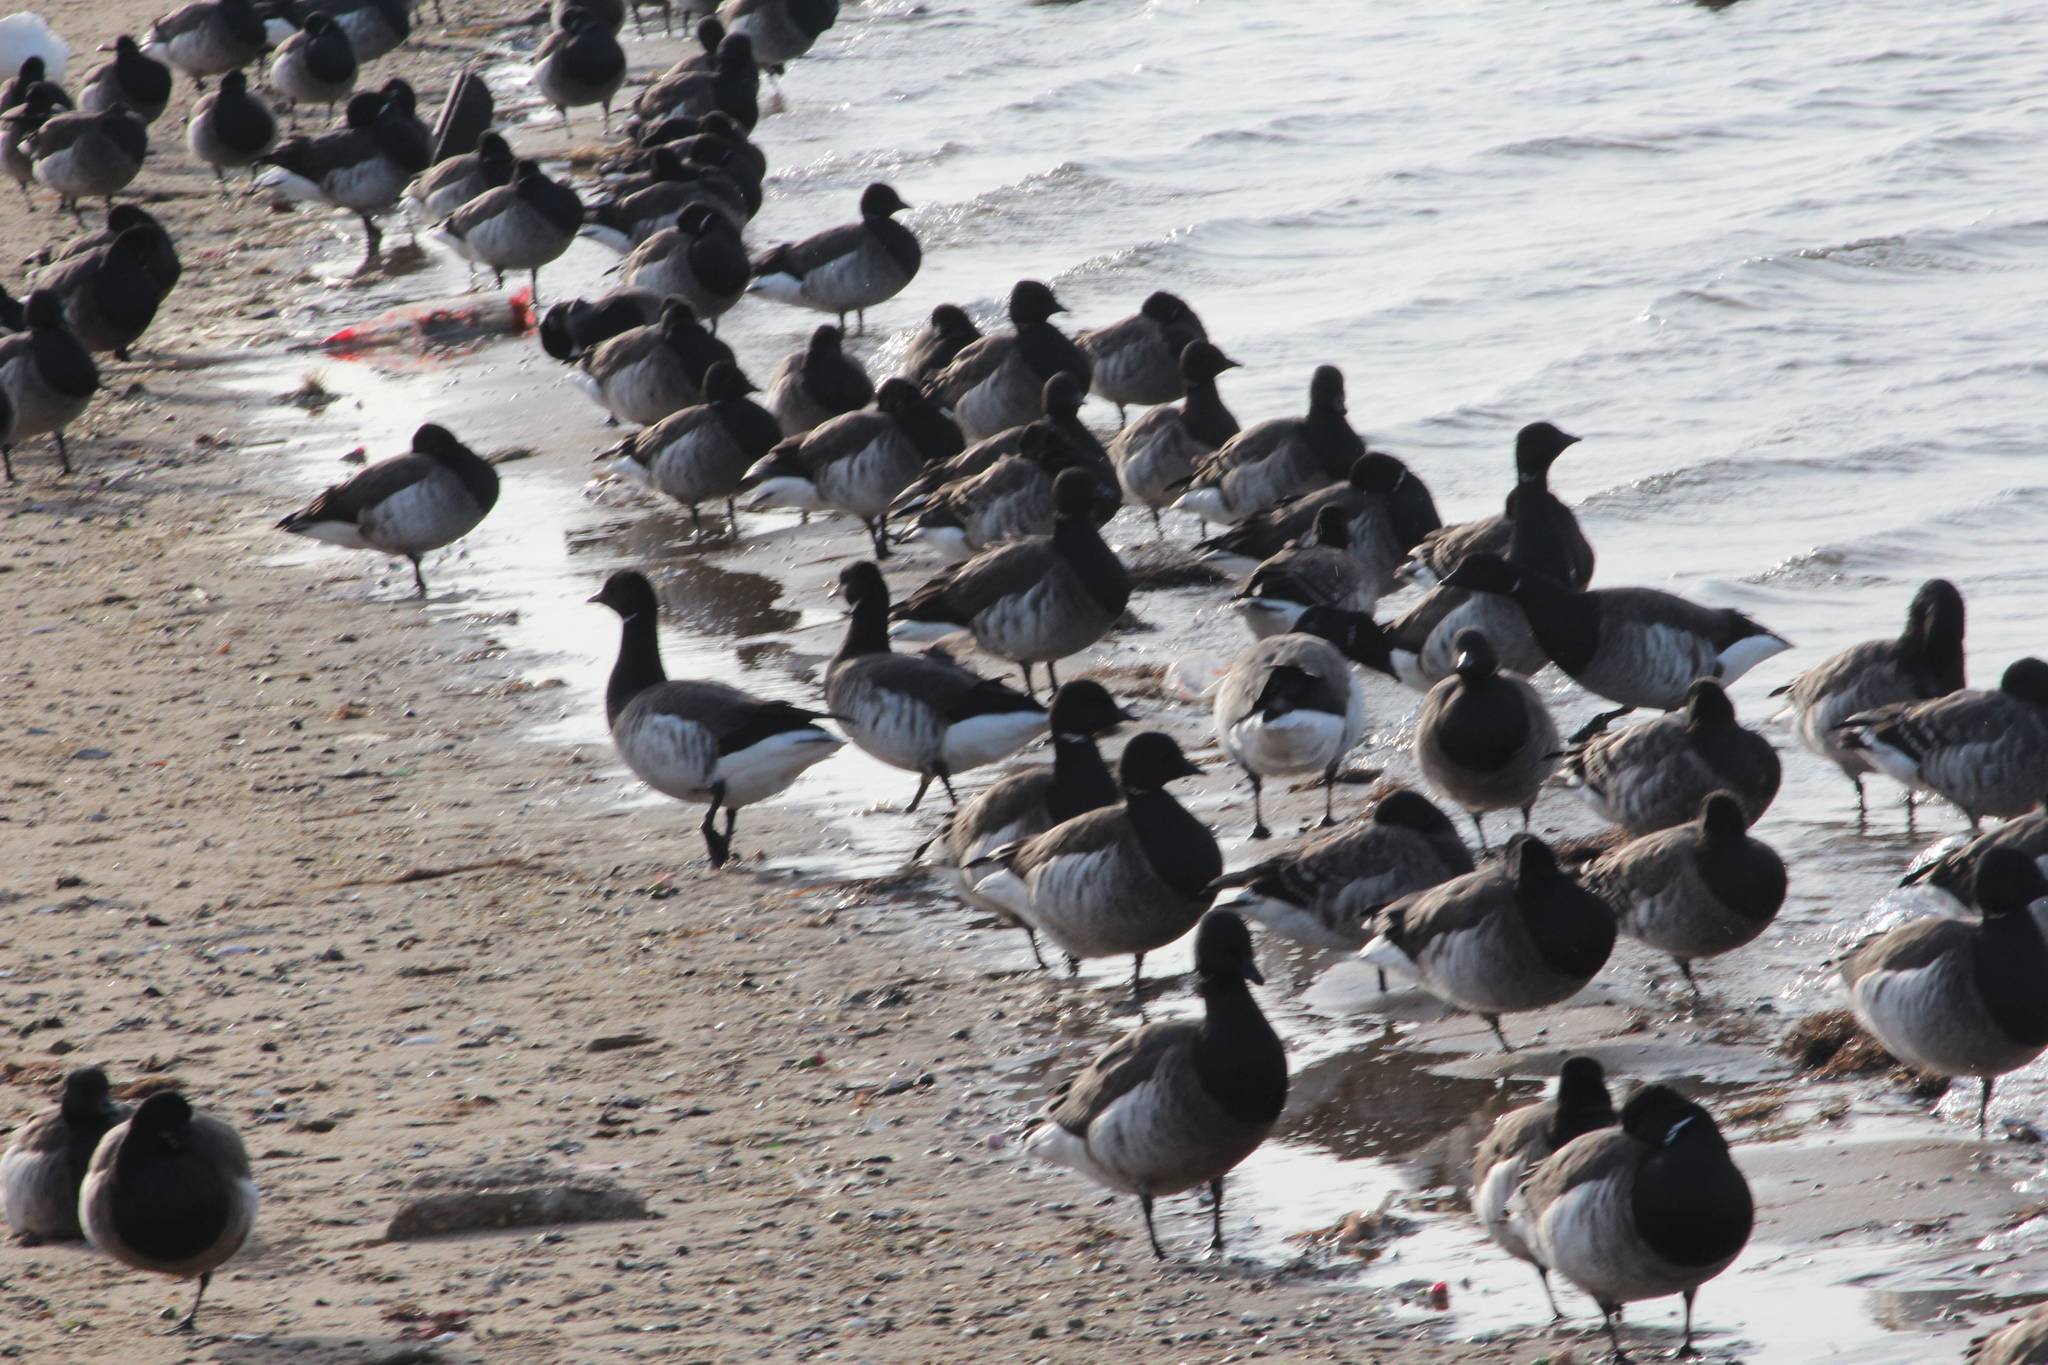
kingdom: Animalia
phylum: Chordata
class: Aves
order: Anseriformes
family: Anatidae
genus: Branta
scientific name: Branta bernicla
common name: Brant goose
